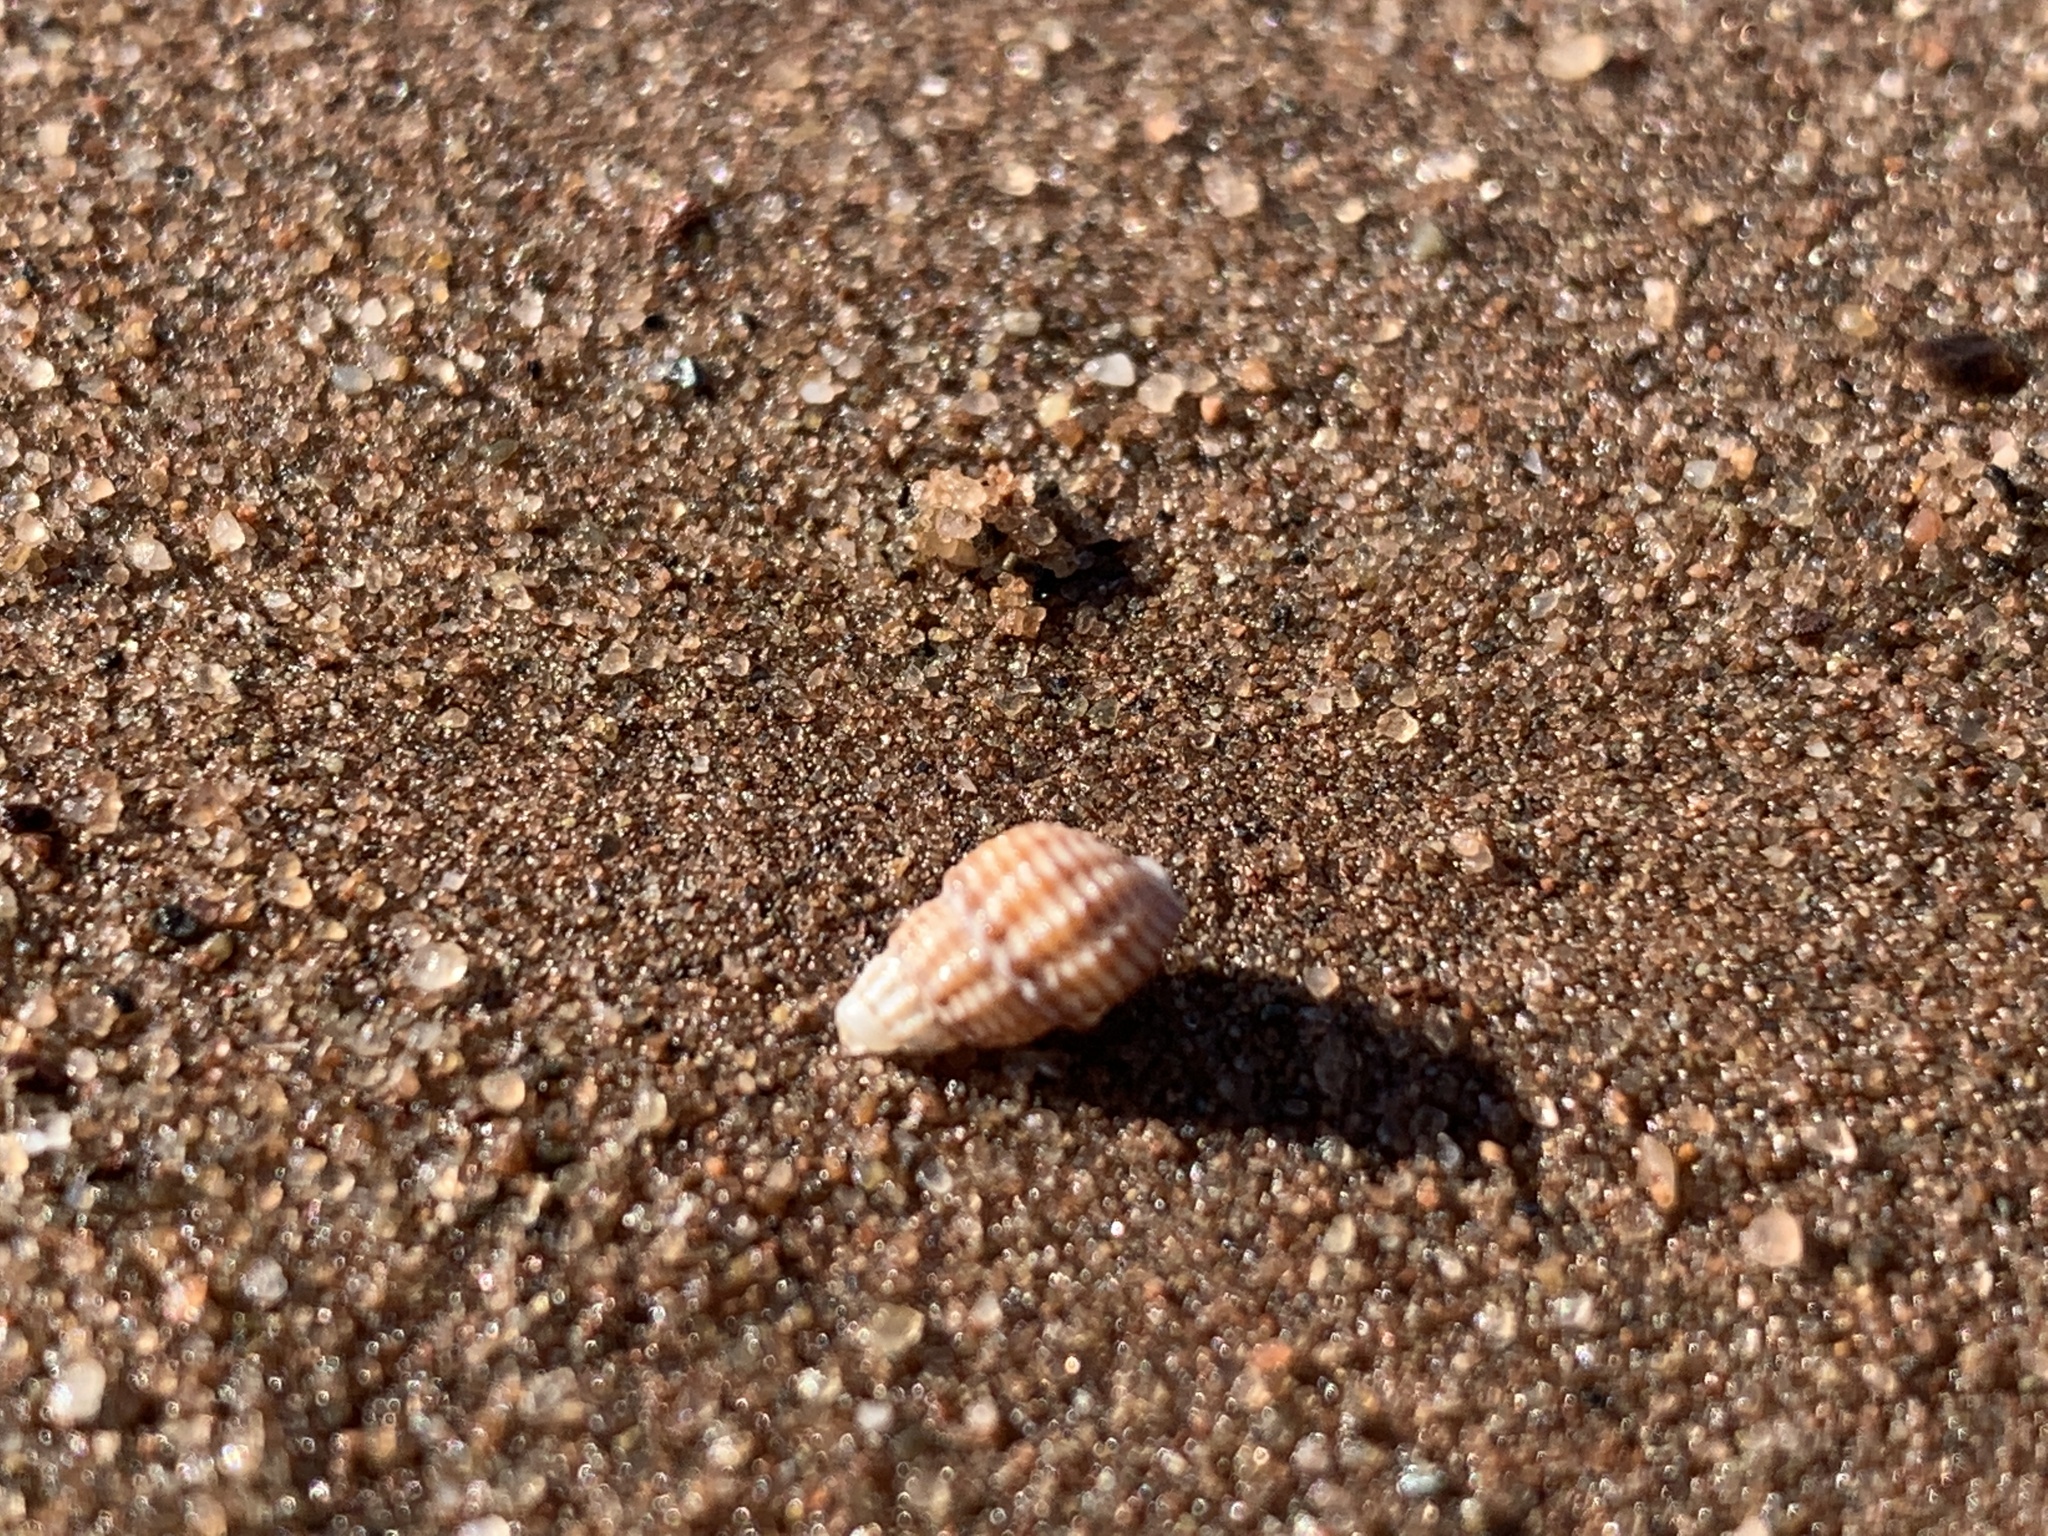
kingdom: Animalia
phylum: Mollusca
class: Gastropoda
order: Neogastropoda
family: Nassariidae
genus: Ilyanassa
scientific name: Ilyanassa trivittata
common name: Three-line mudsnail
